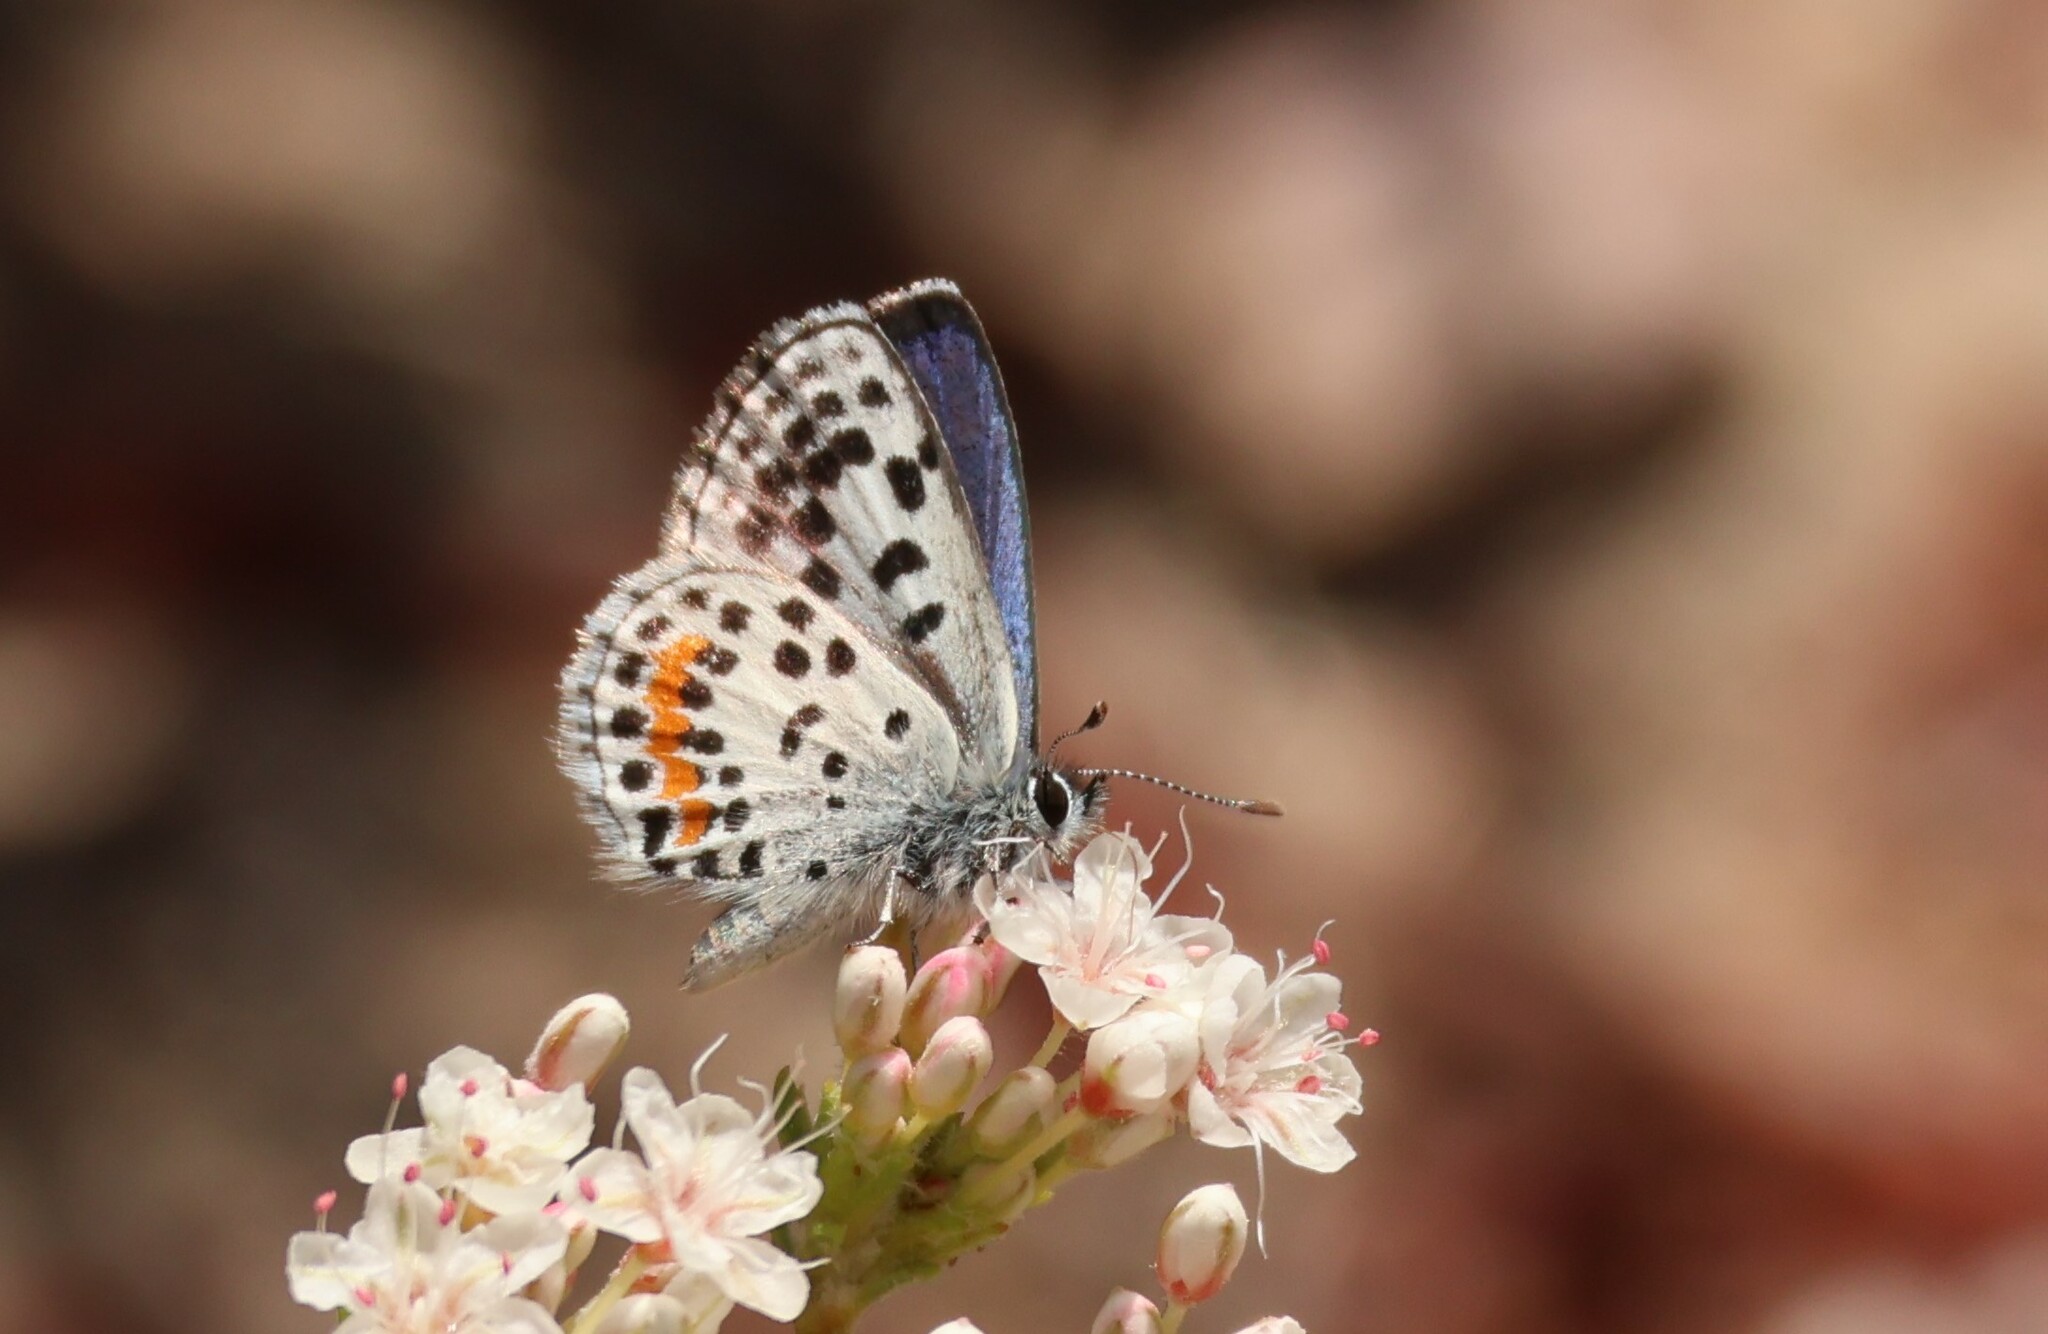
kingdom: Animalia
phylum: Arthropoda
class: Insecta
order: Lepidoptera
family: Lycaenidae
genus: Philotes
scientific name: Philotes bernardino
